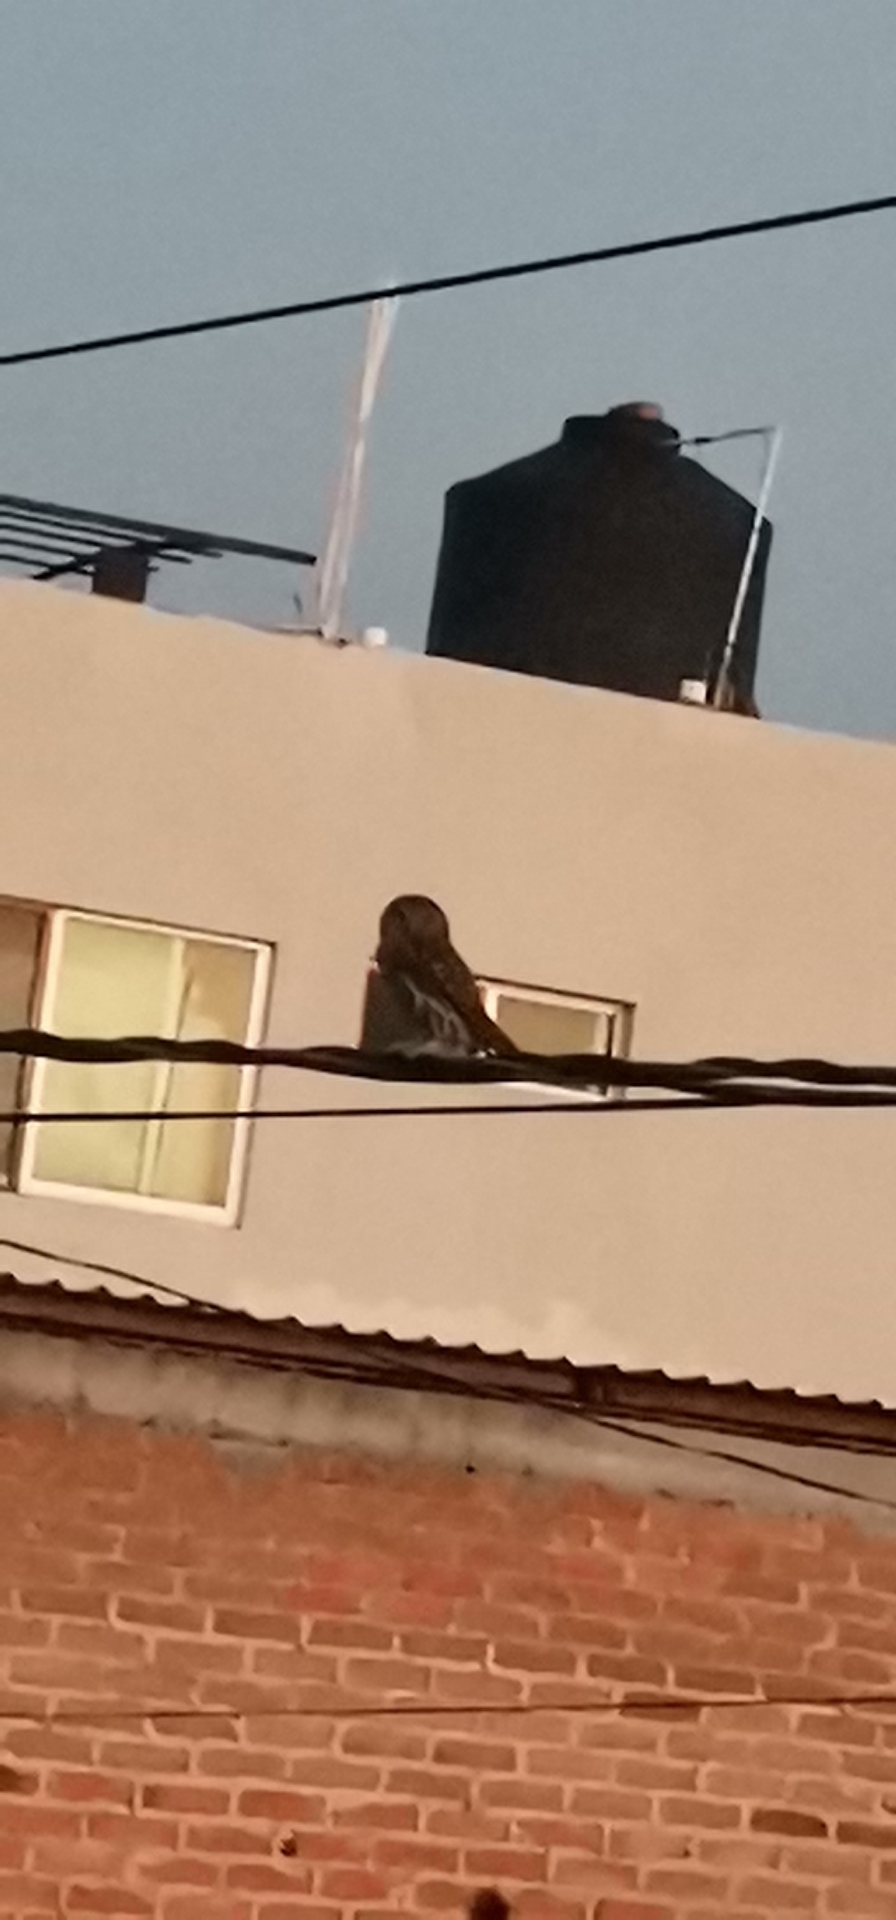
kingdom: Animalia
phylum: Chordata
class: Aves
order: Strigiformes
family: Strigidae
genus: Glaucidium
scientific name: Glaucidium brasilianum
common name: Ferruginous pygmy-owl
